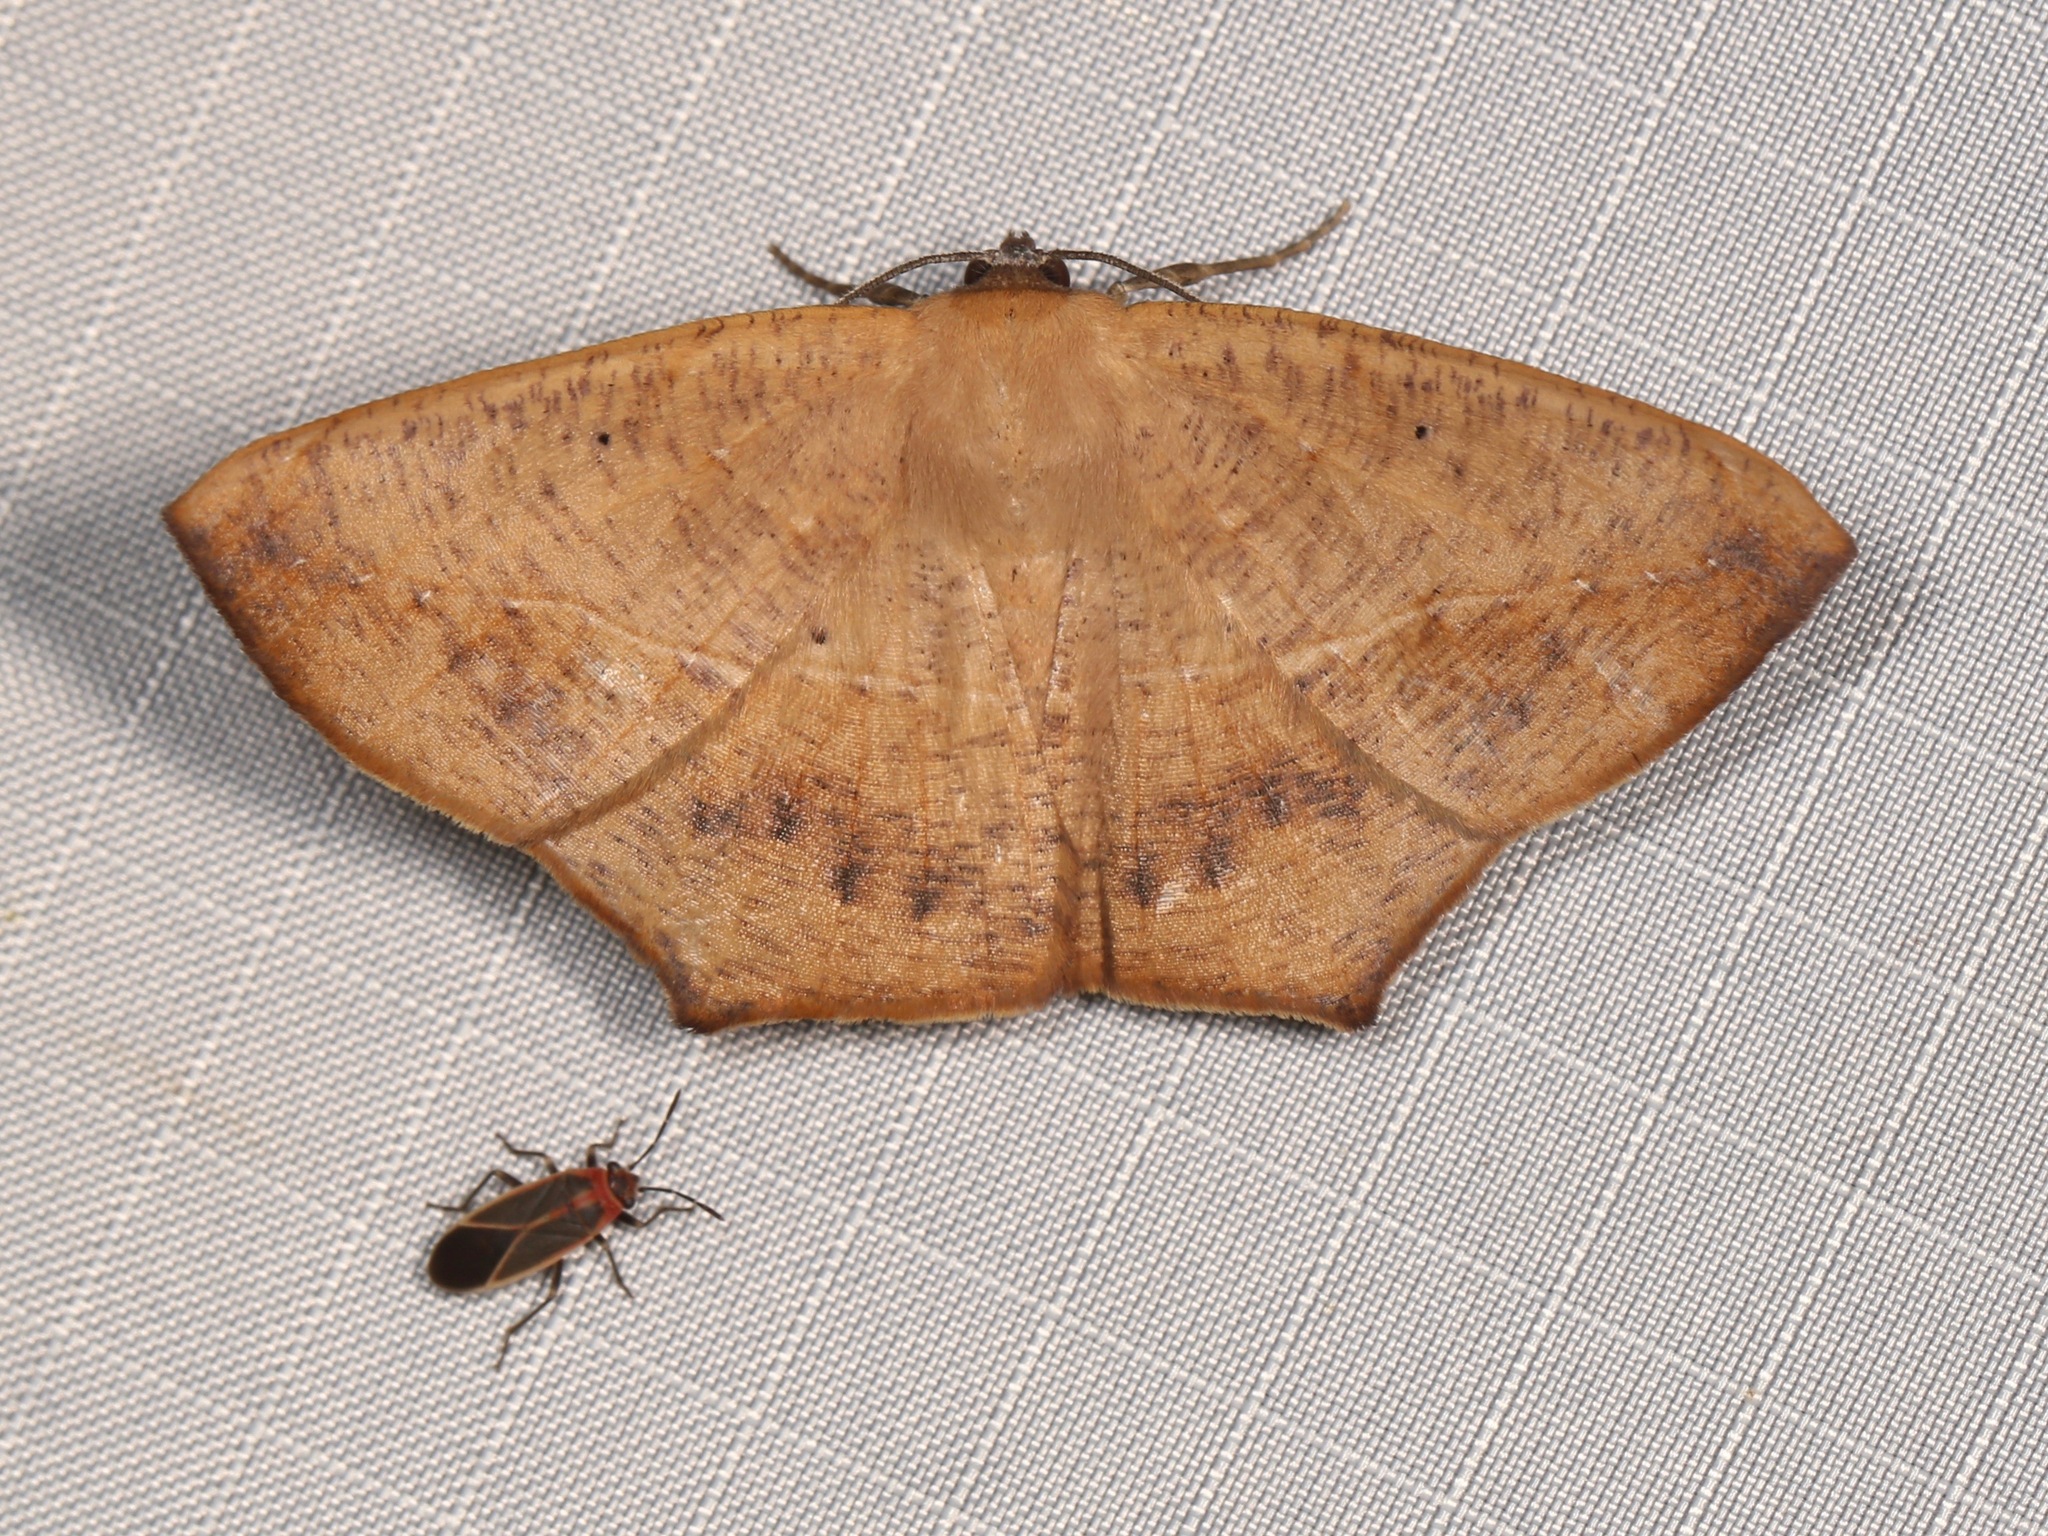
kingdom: Animalia
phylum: Arthropoda
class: Insecta
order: Lepidoptera
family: Geometridae
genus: Prochoerodes
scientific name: Prochoerodes lineola
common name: Large maple spanworm
